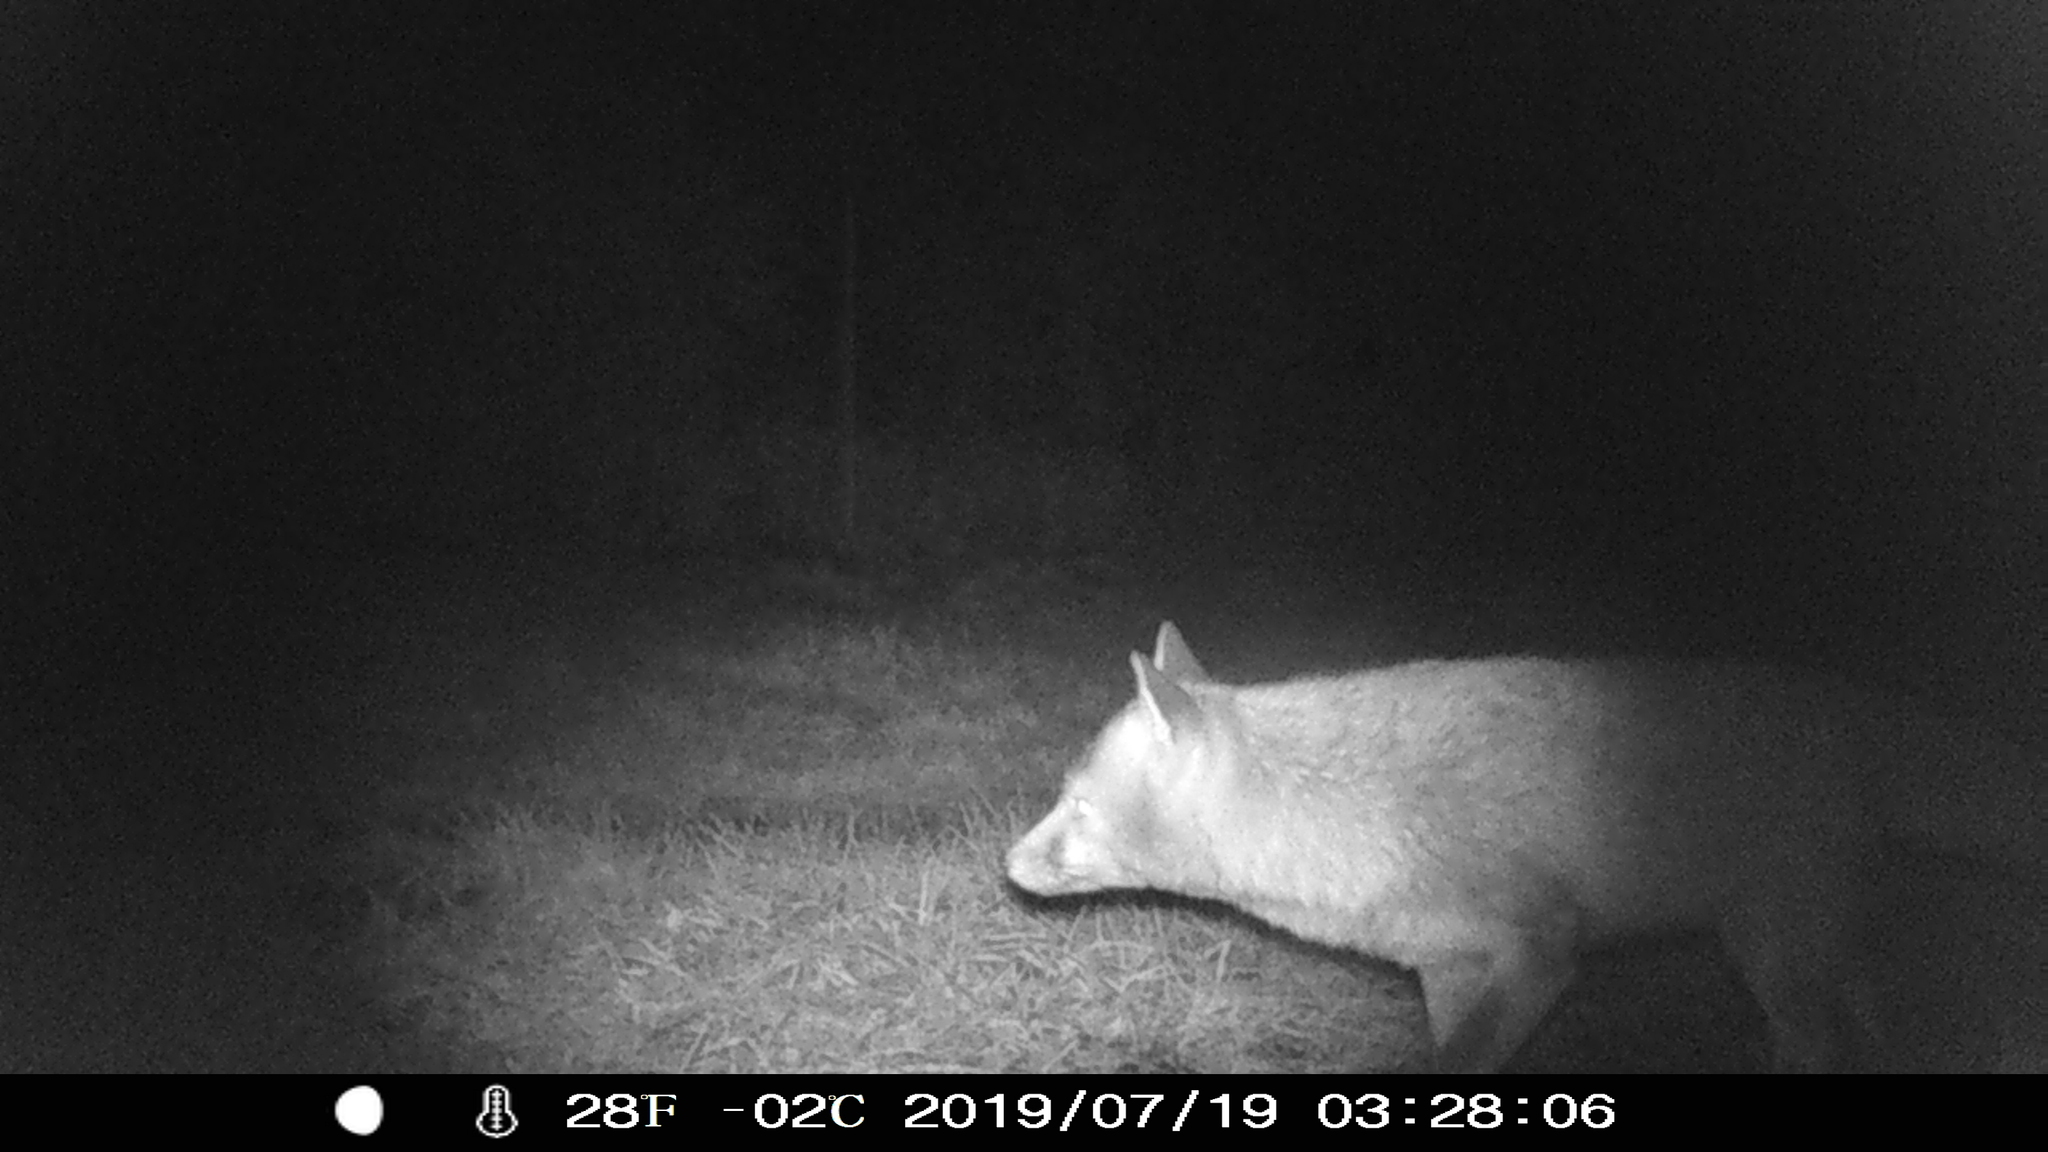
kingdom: Animalia
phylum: Chordata
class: Mammalia
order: Carnivora
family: Canidae
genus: Vulpes
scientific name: Vulpes vulpes
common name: Red fox
